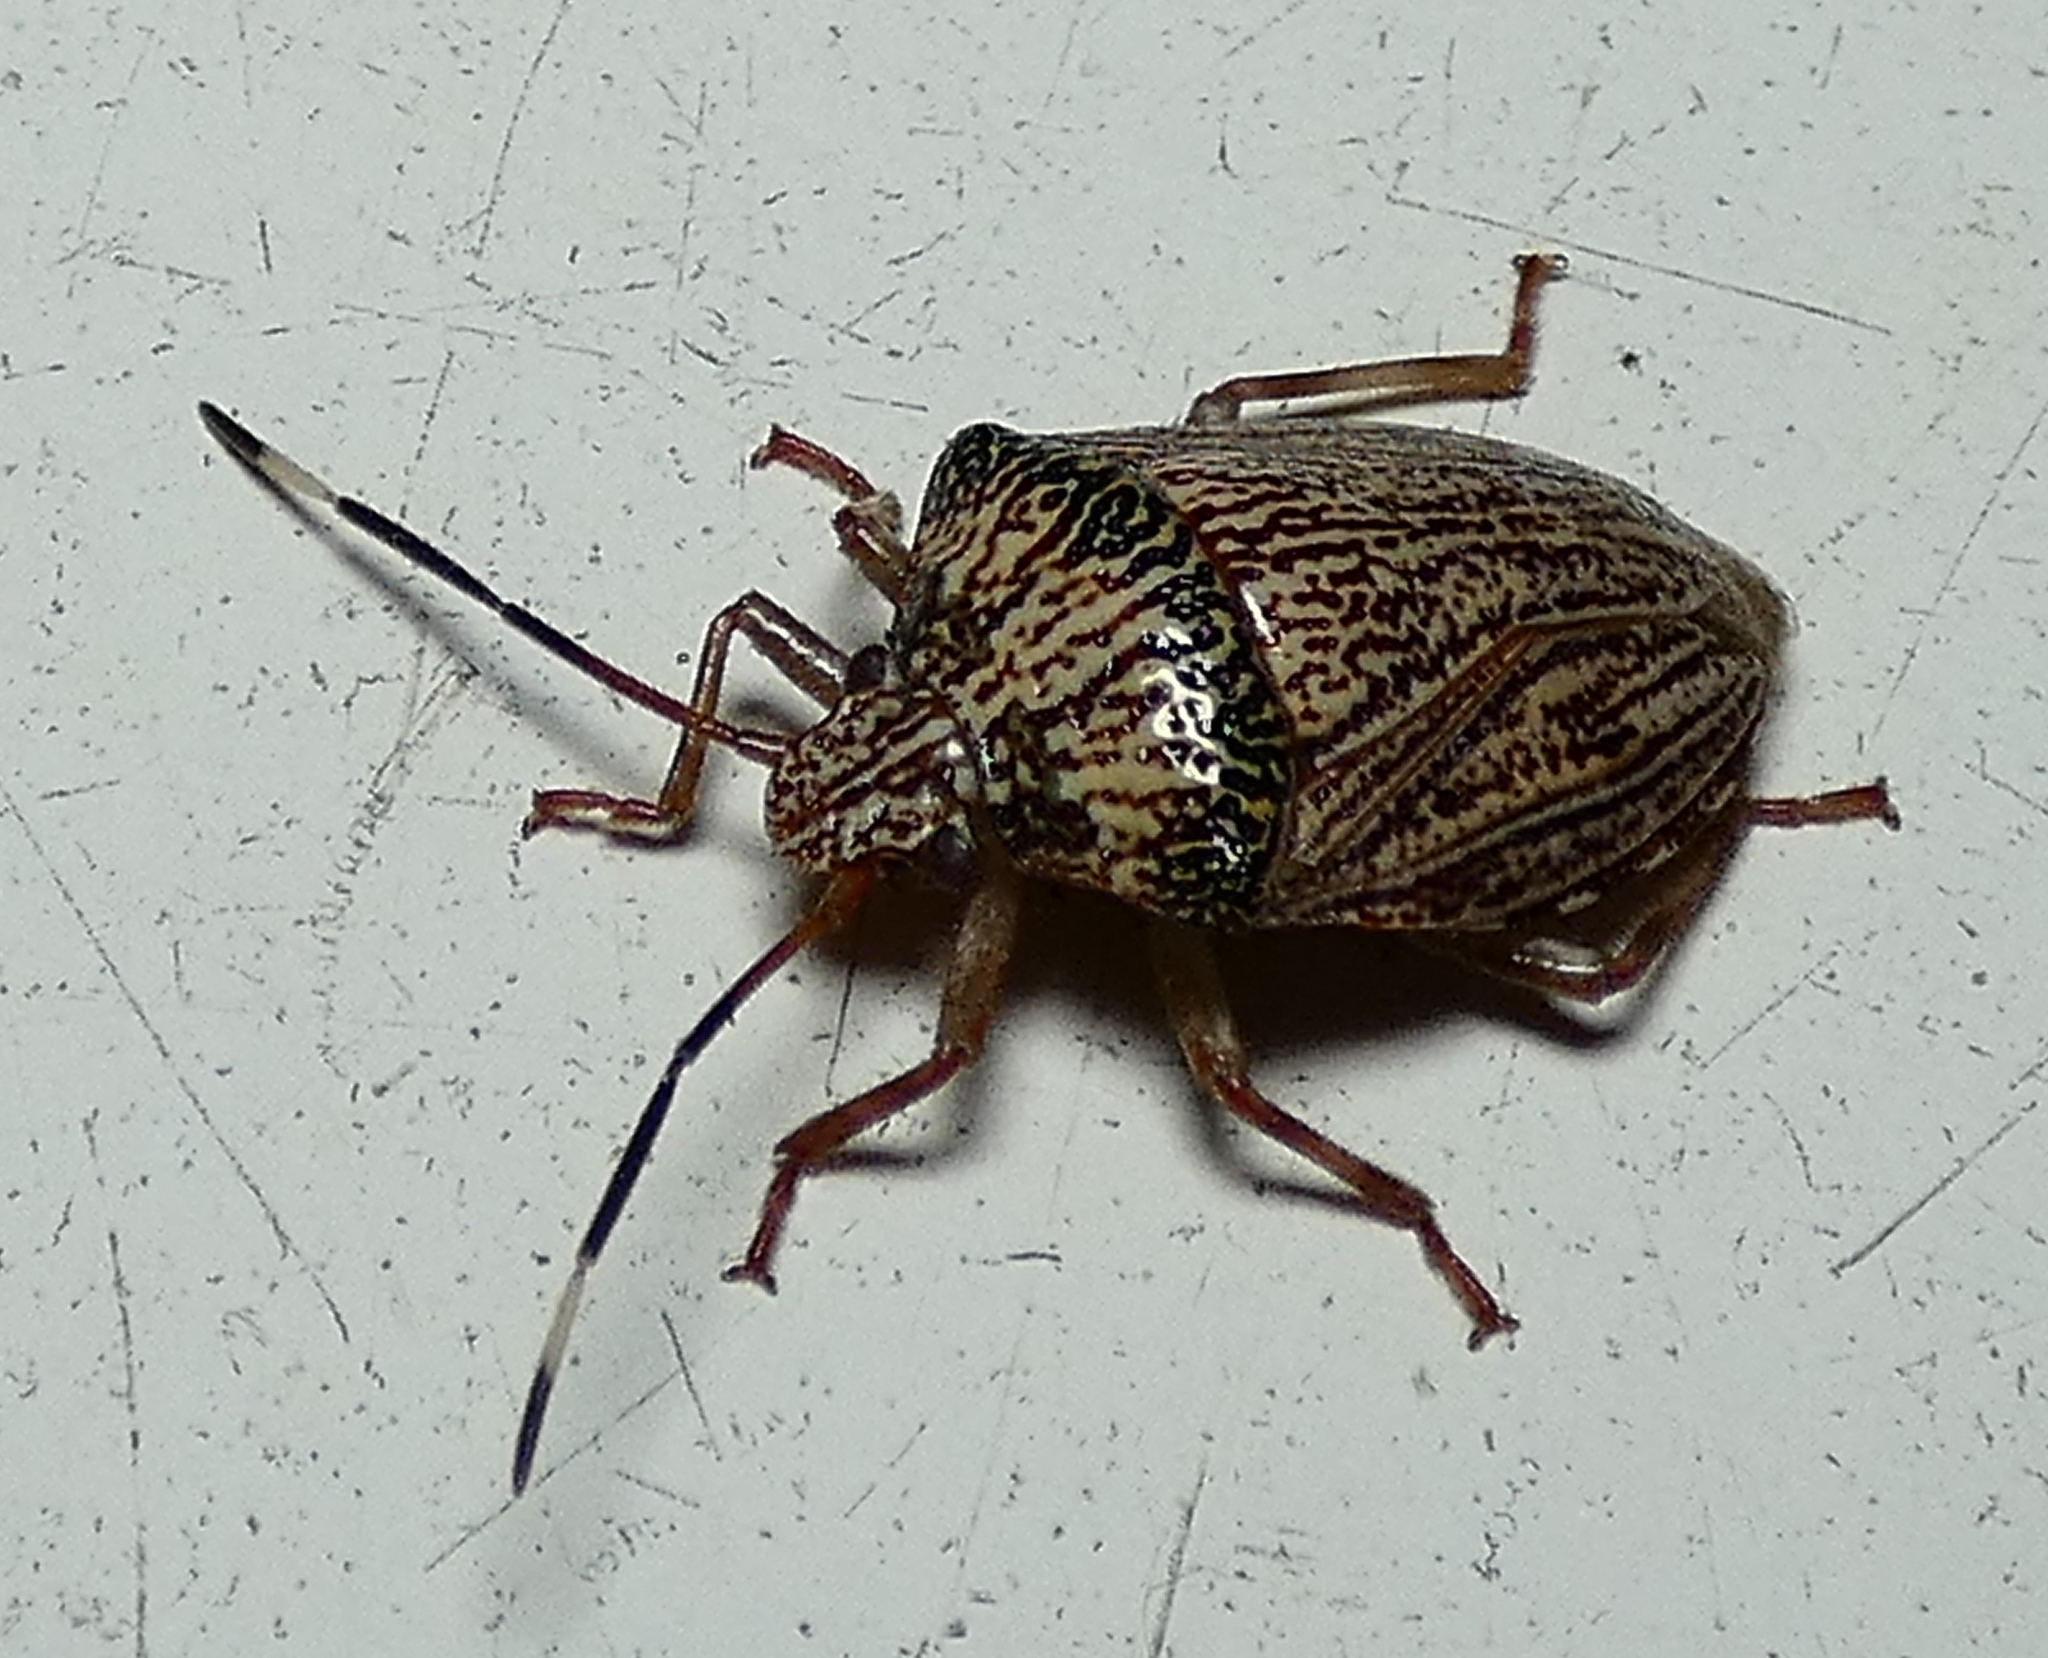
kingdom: Animalia
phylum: Arthropoda
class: Insecta
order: Hemiptera
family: Pentatomidae
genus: Antiteuchus
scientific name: Antiteuchus macraspis
